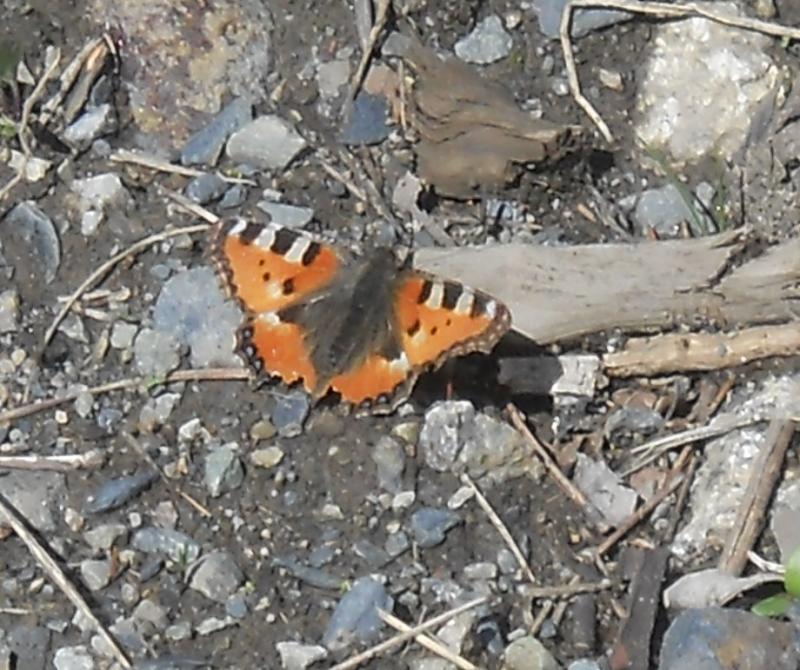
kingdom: Animalia
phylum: Arthropoda
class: Insecta
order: Lepidoptera
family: Nymphalidae
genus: Aglais
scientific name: Aglais urticae
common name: Small tortoiseshell
